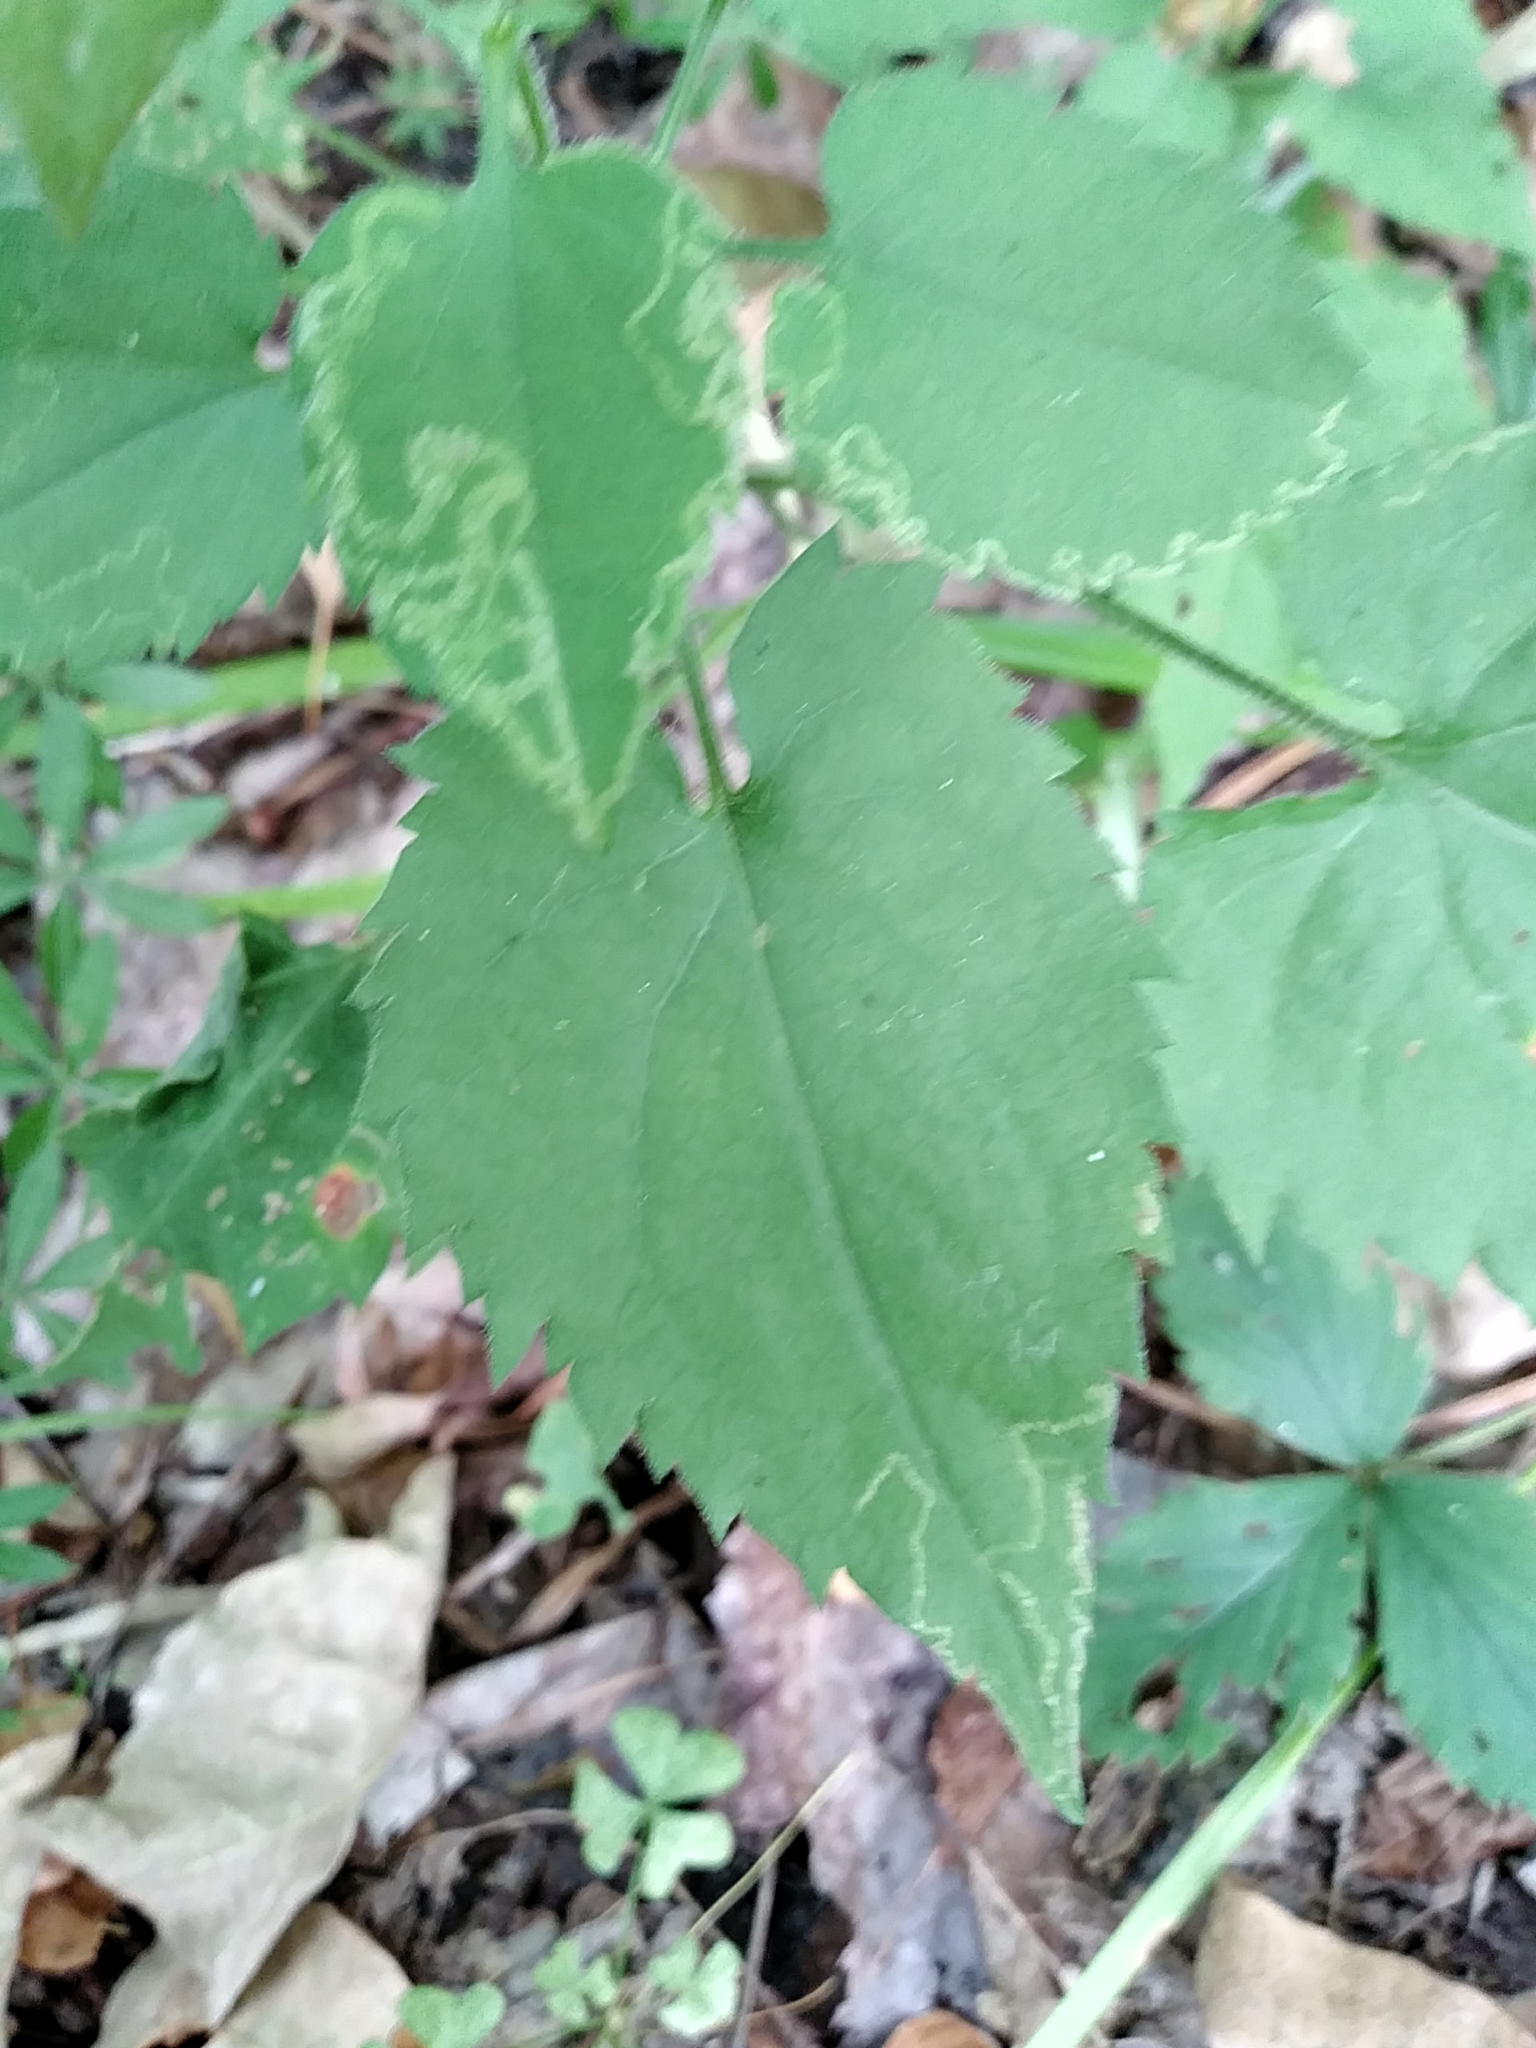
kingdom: Plantae
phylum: Tracheophyta
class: Magnoliopsida
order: Asterales
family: Asteraceae
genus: Symphyotrichum
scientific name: Symphyotrichum cordifolium
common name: Beeweed
